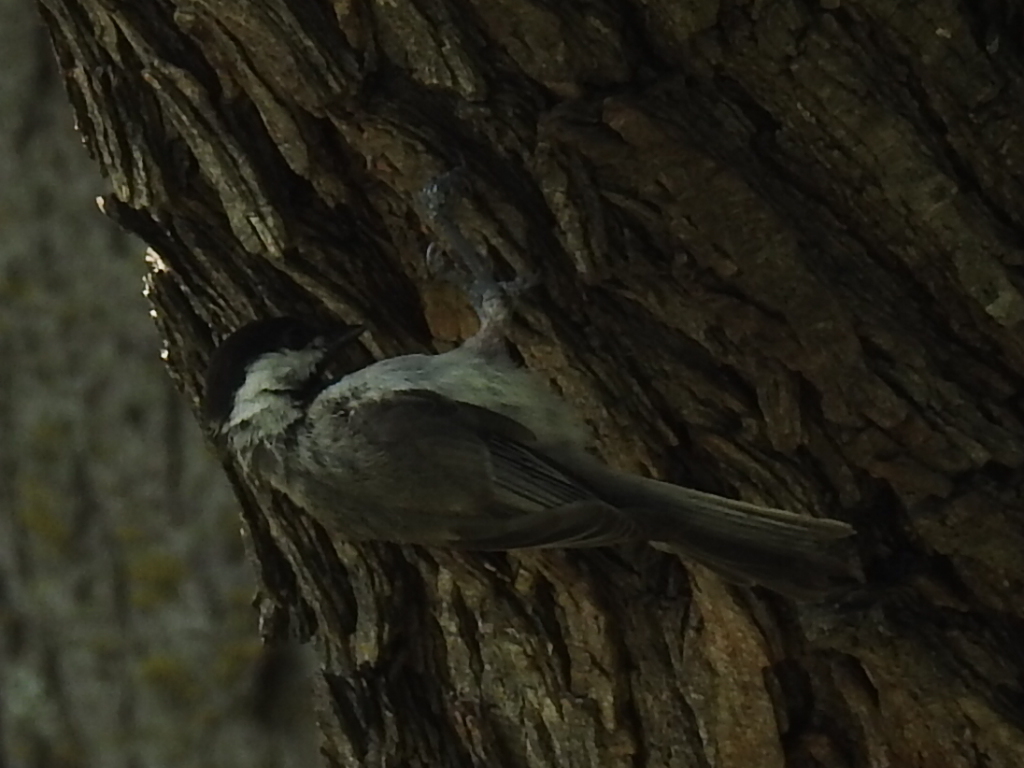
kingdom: Animalia
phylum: Chordata
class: Aves
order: Passeriformes
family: Paridae
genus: Poecile
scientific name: Poecile carolinensis
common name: Carolina chickadee
